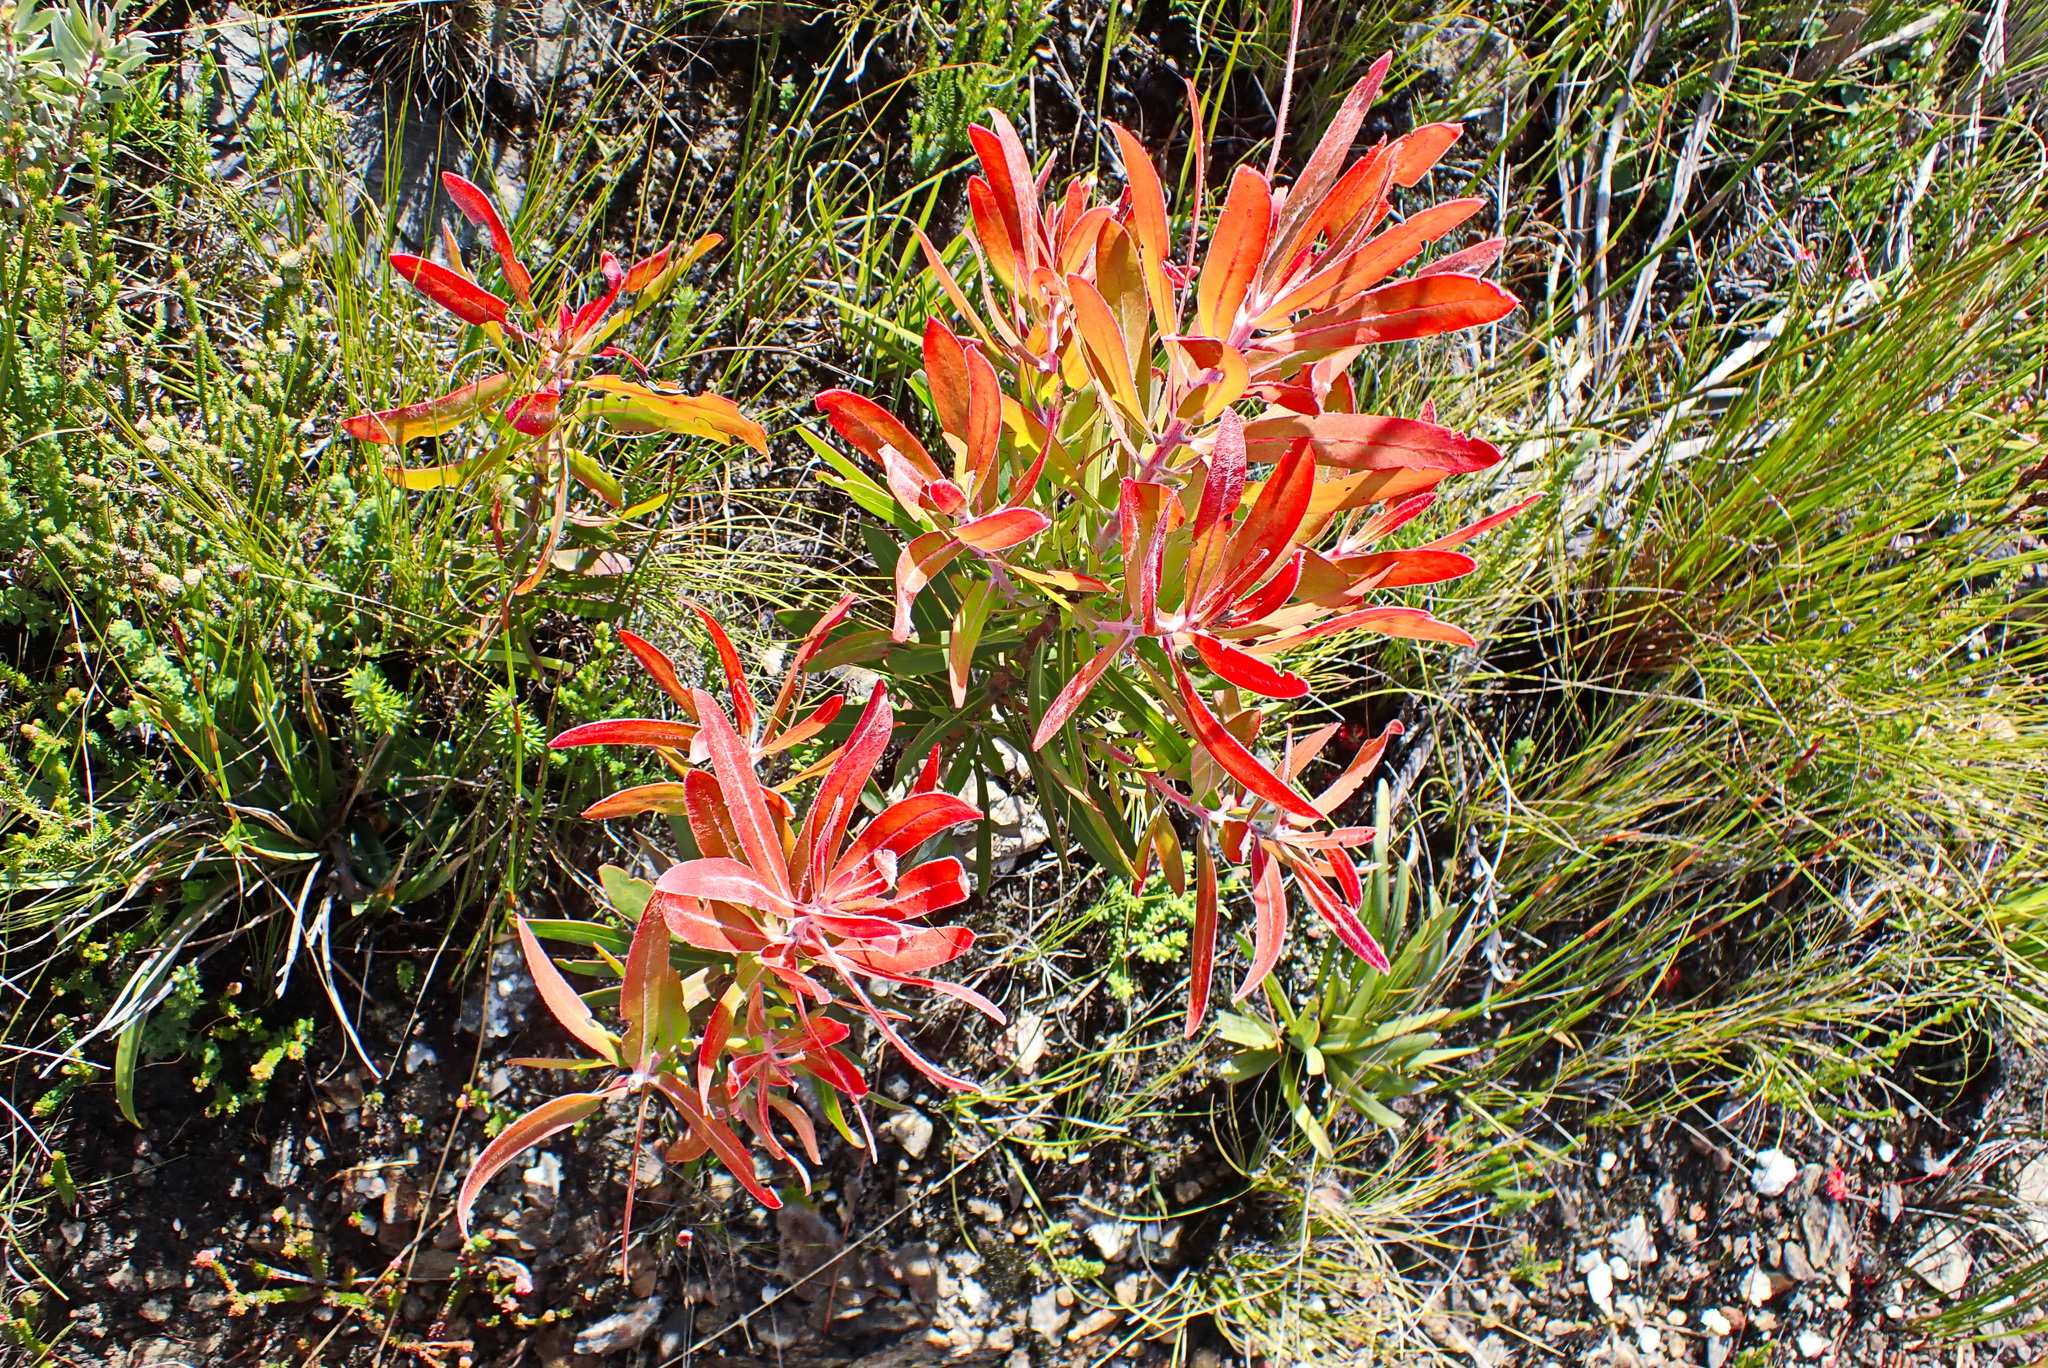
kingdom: Plantae
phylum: Tracheophyta
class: Magnoliopsida
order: Proteales
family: Proteaceae
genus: Protea
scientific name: Protea neriifolia
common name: Blue sugarbush
